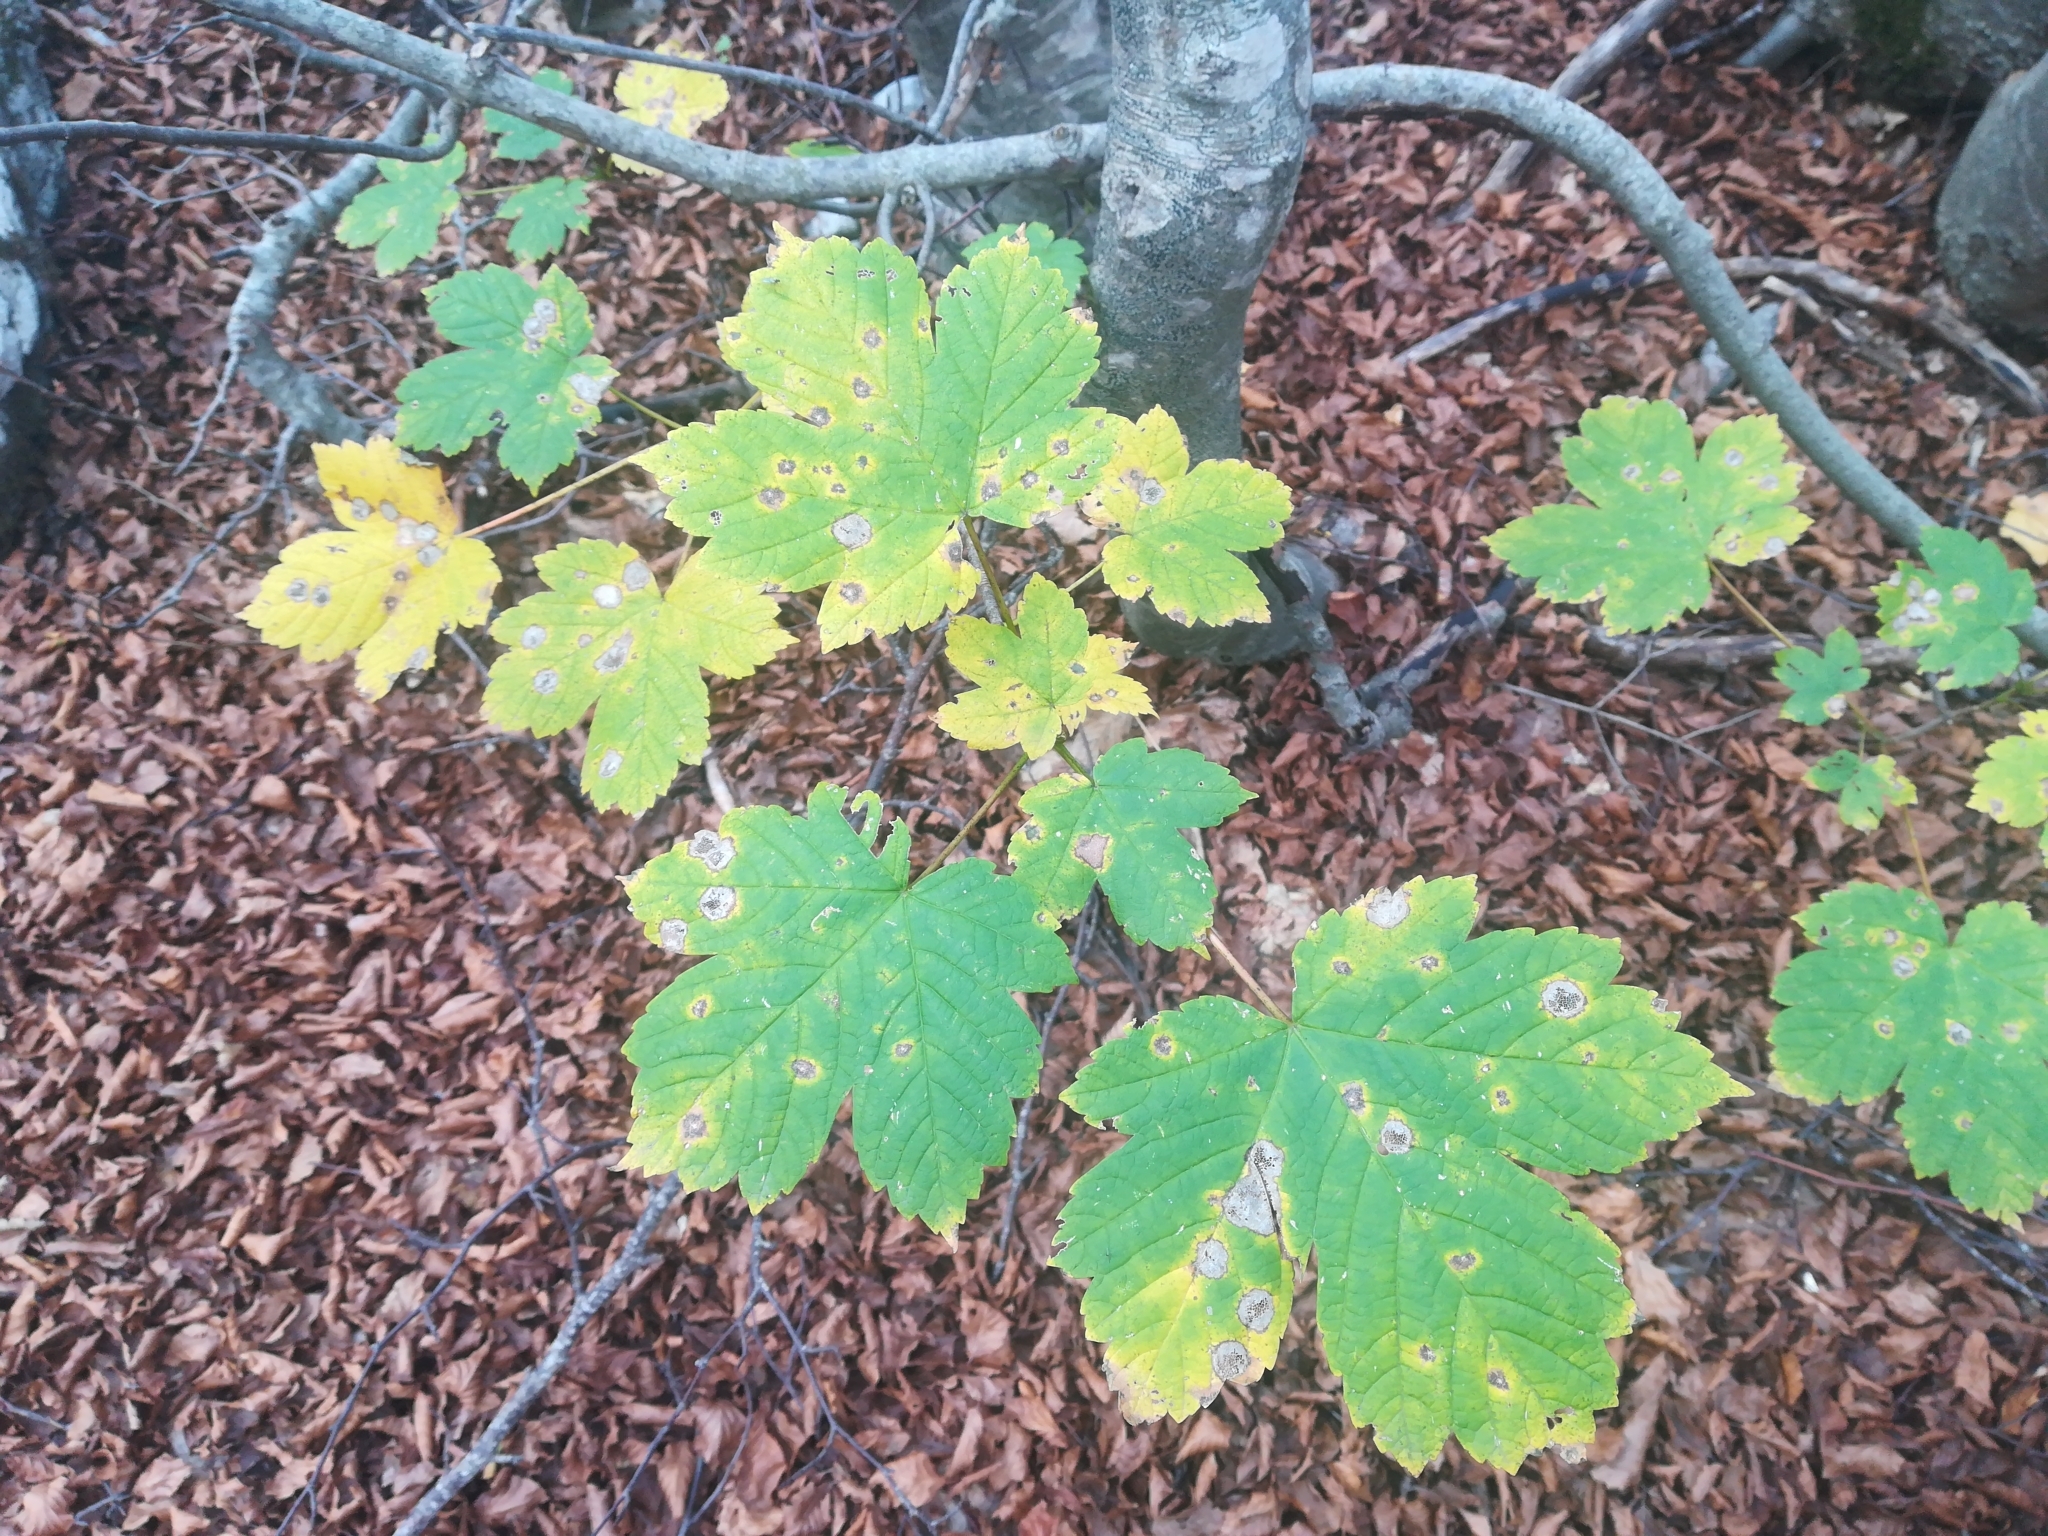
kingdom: Plantae
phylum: Tracheophyta
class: Magnoliopsida
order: Sapindales
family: Sapindaceae
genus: Acer
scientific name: Acer pseudoplatanus
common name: Sycamore
